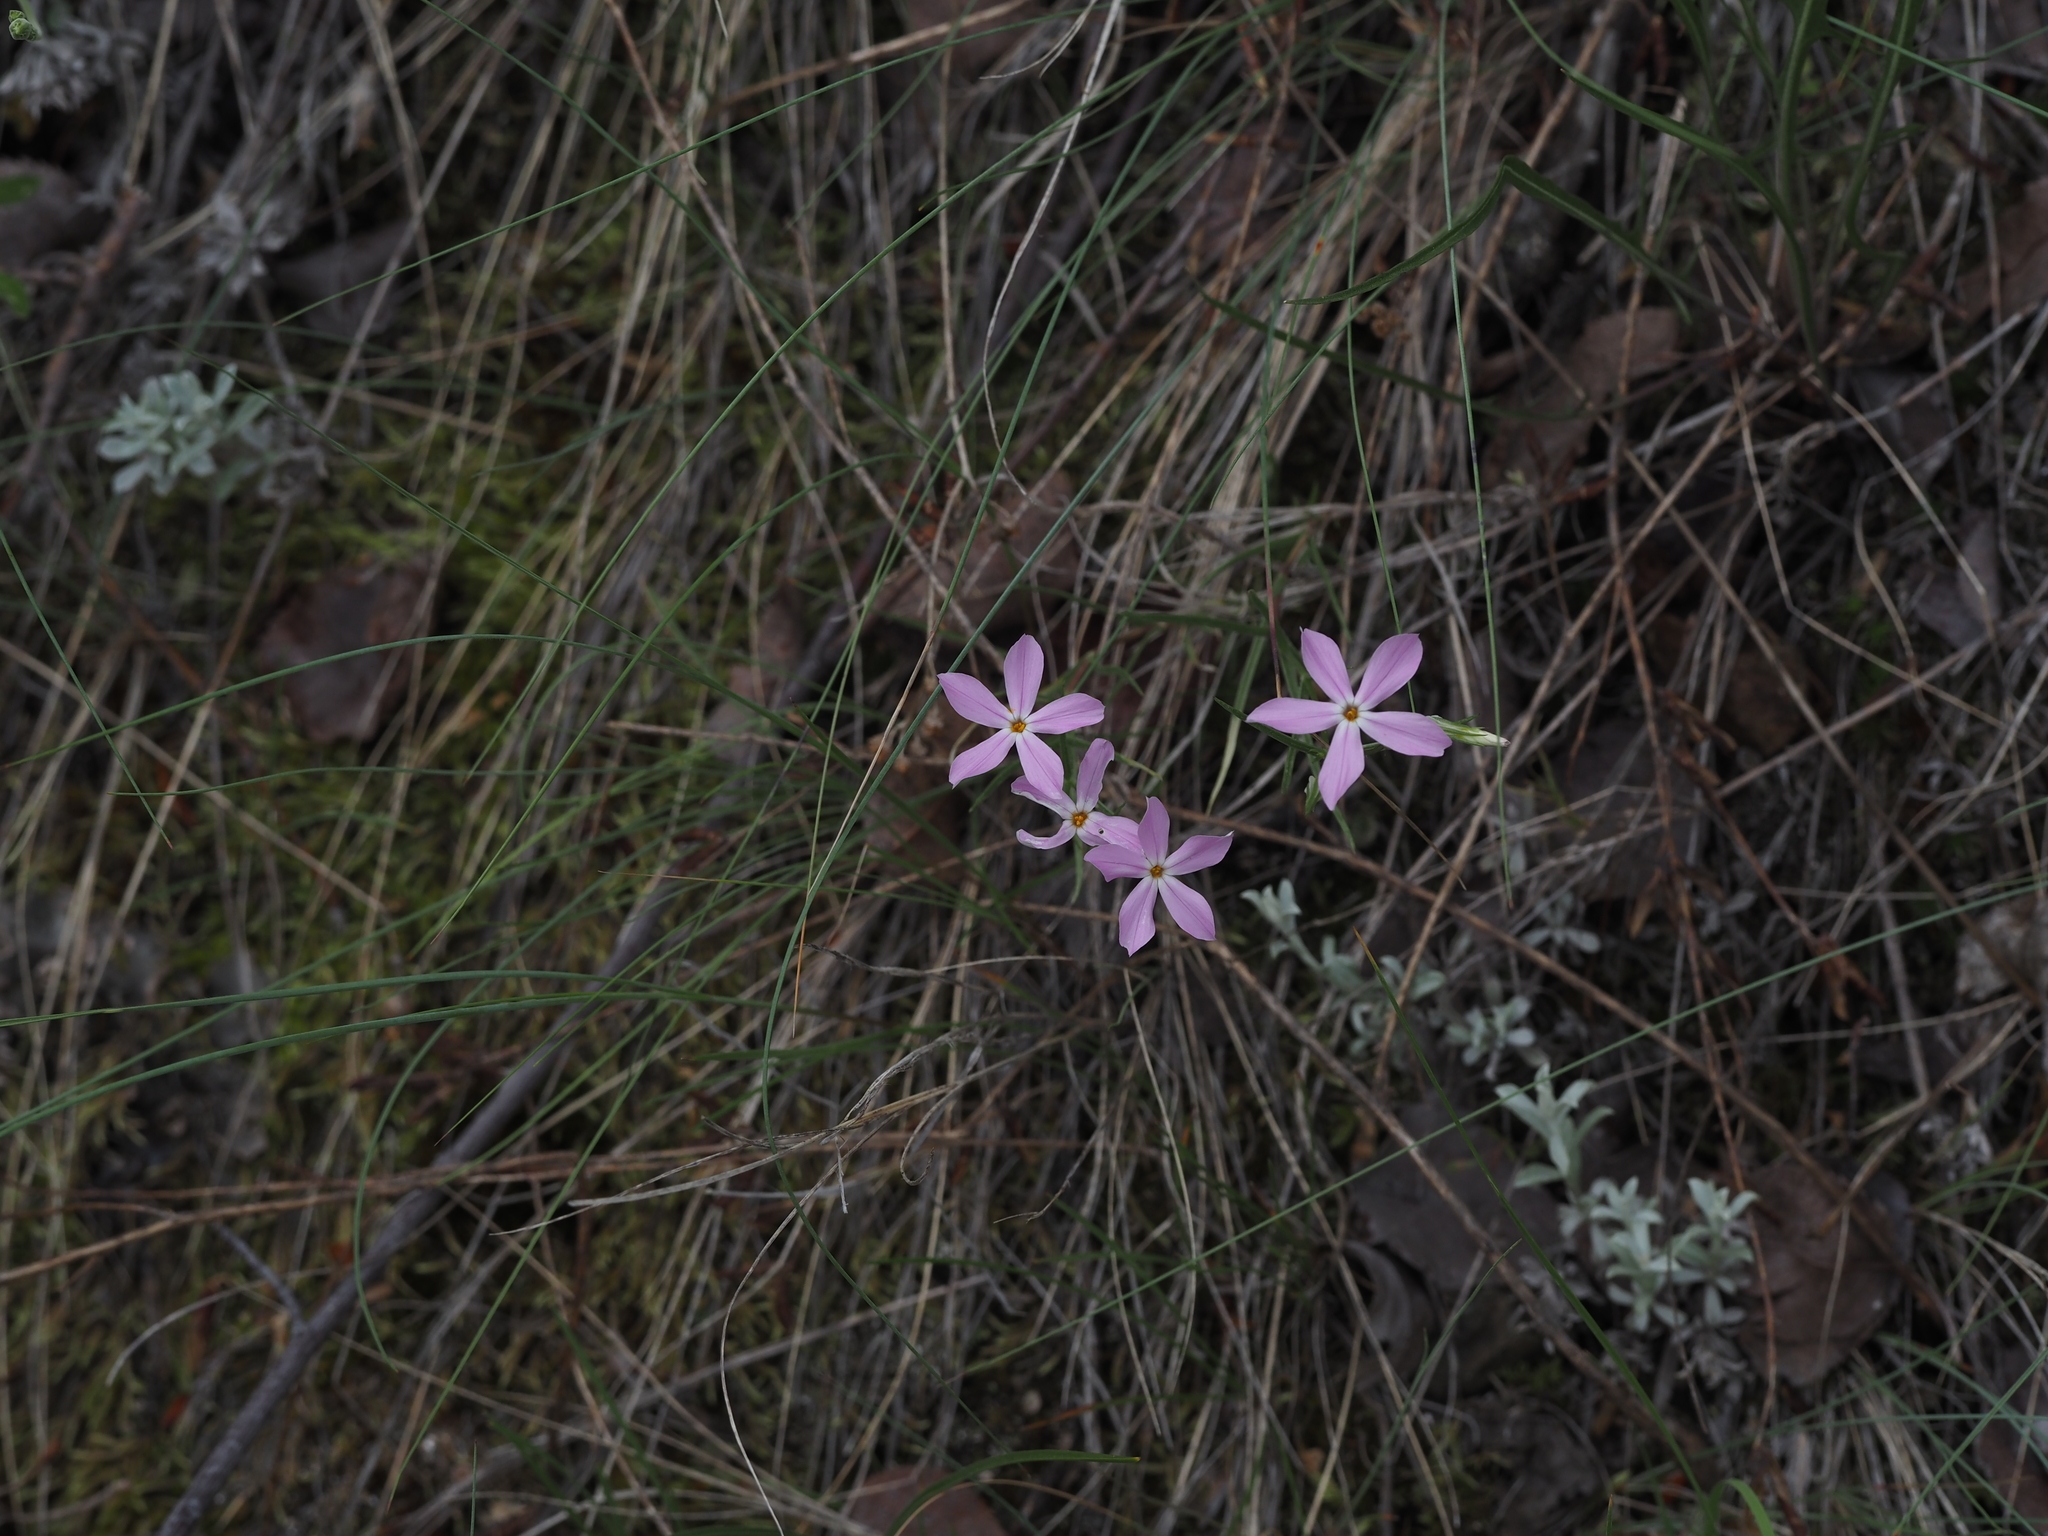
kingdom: Plantae
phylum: Tracheophyta
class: Magnoliopsida
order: Ericales
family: Polemoniaceae
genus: Phlox
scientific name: Phlox longifolia
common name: Longleaf phlox
